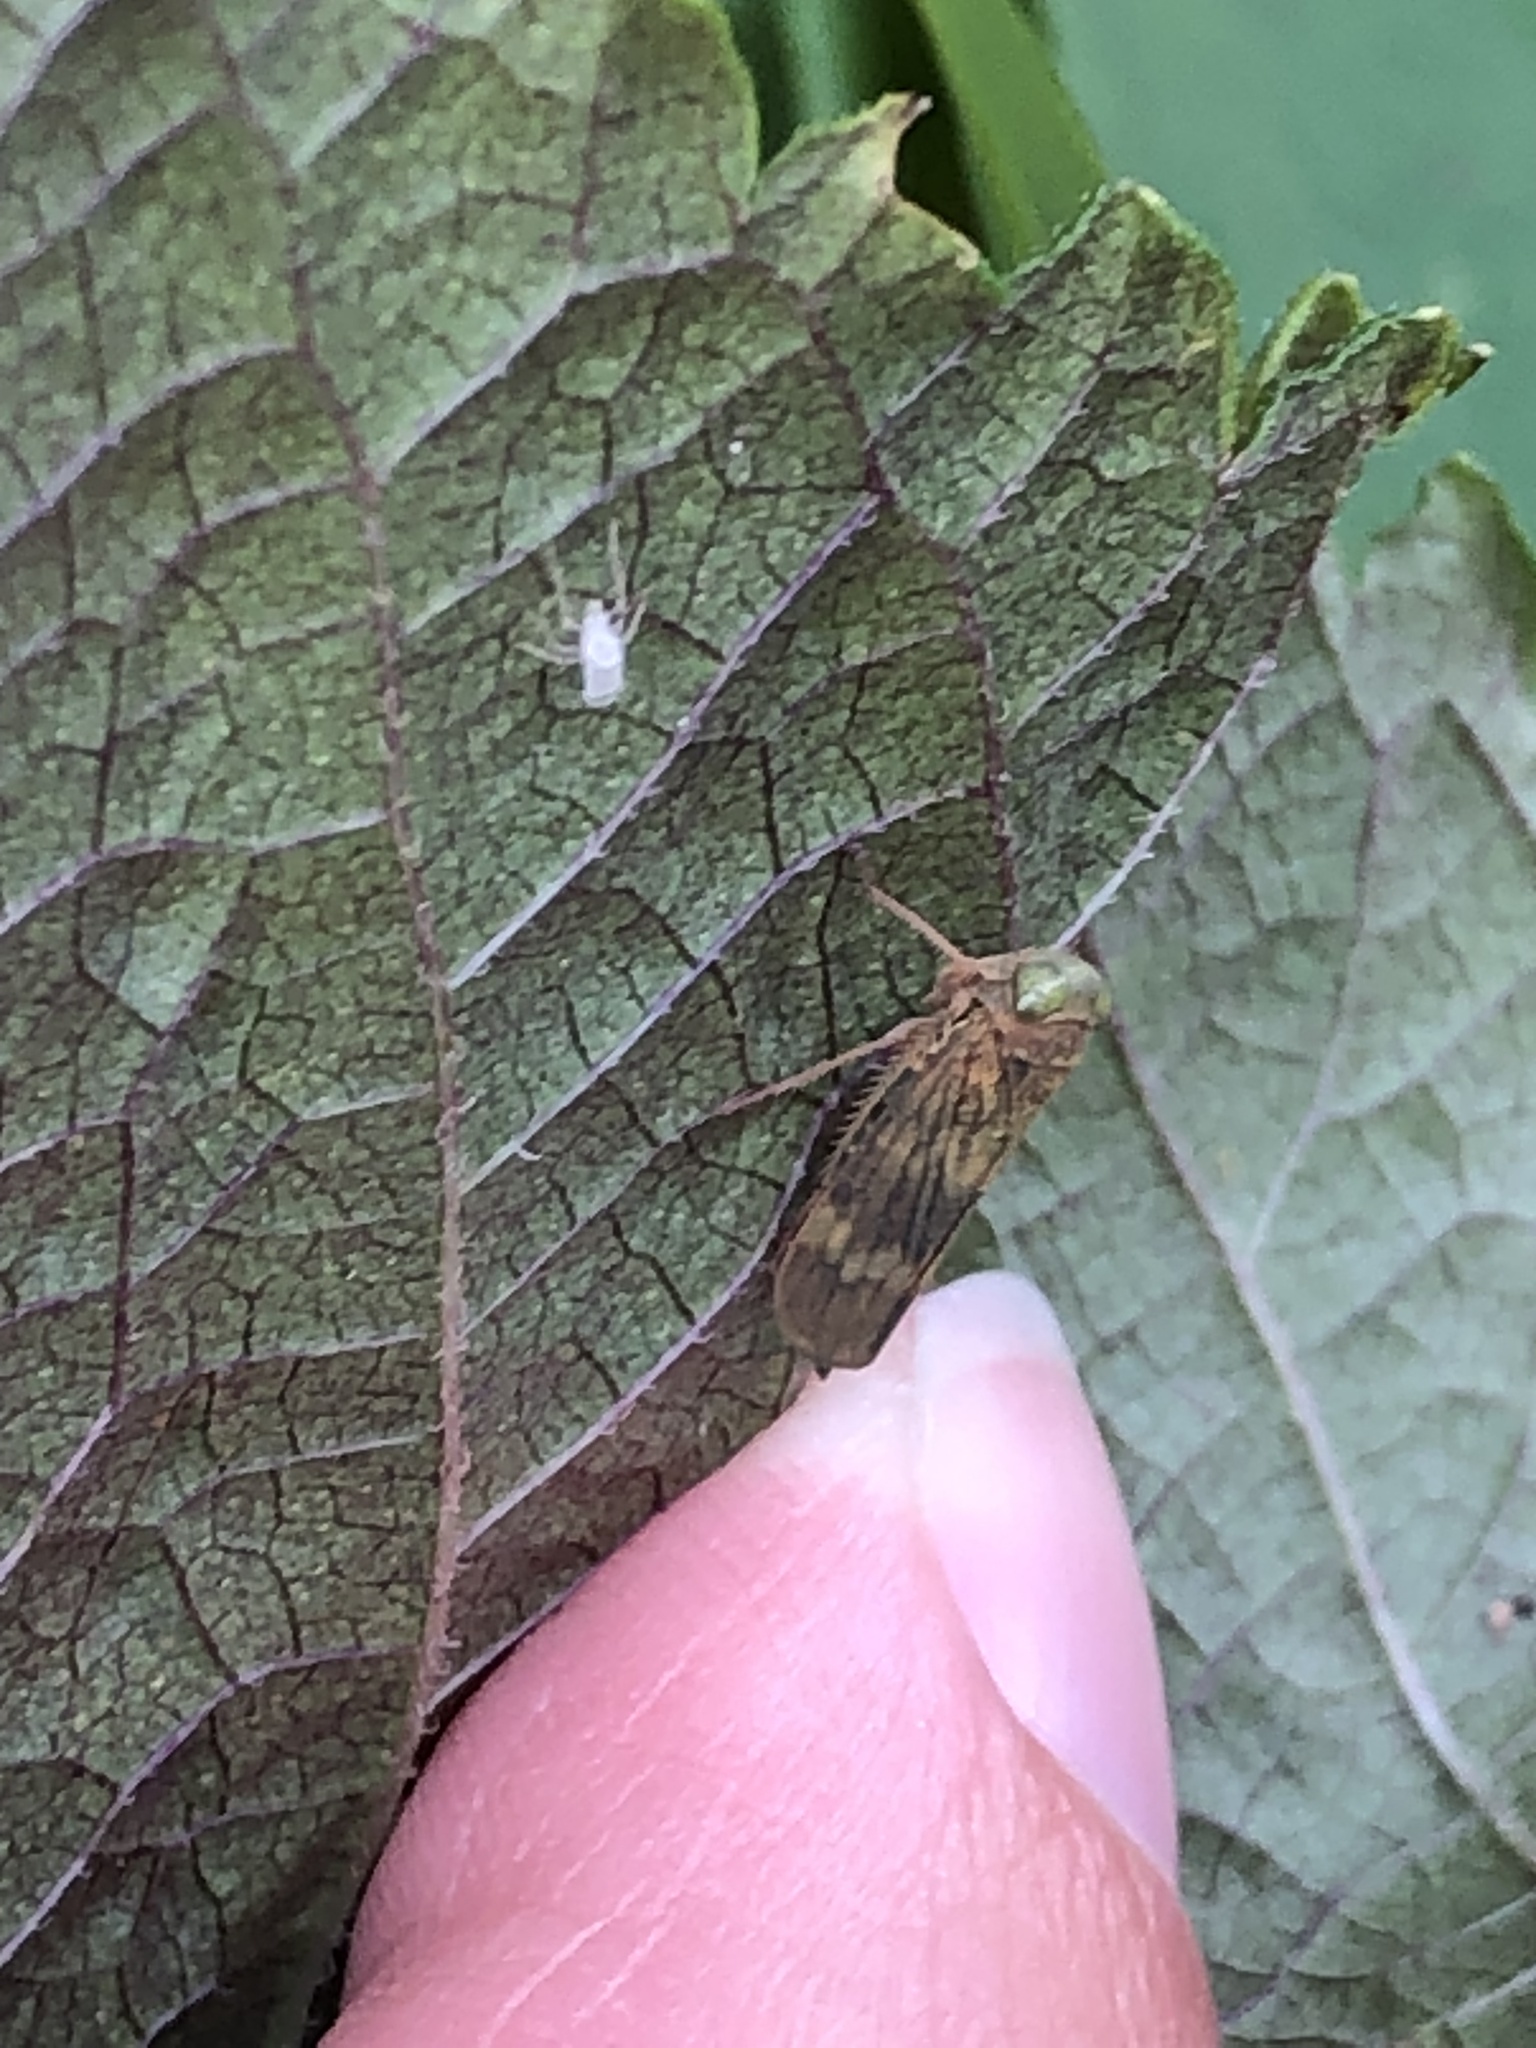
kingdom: Animalia
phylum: Arthropoda
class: Insecta
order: Hemiptera
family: Cicadellidae
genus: Jikradia
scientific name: Jikradia olitoria
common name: Coppery leafhopper
